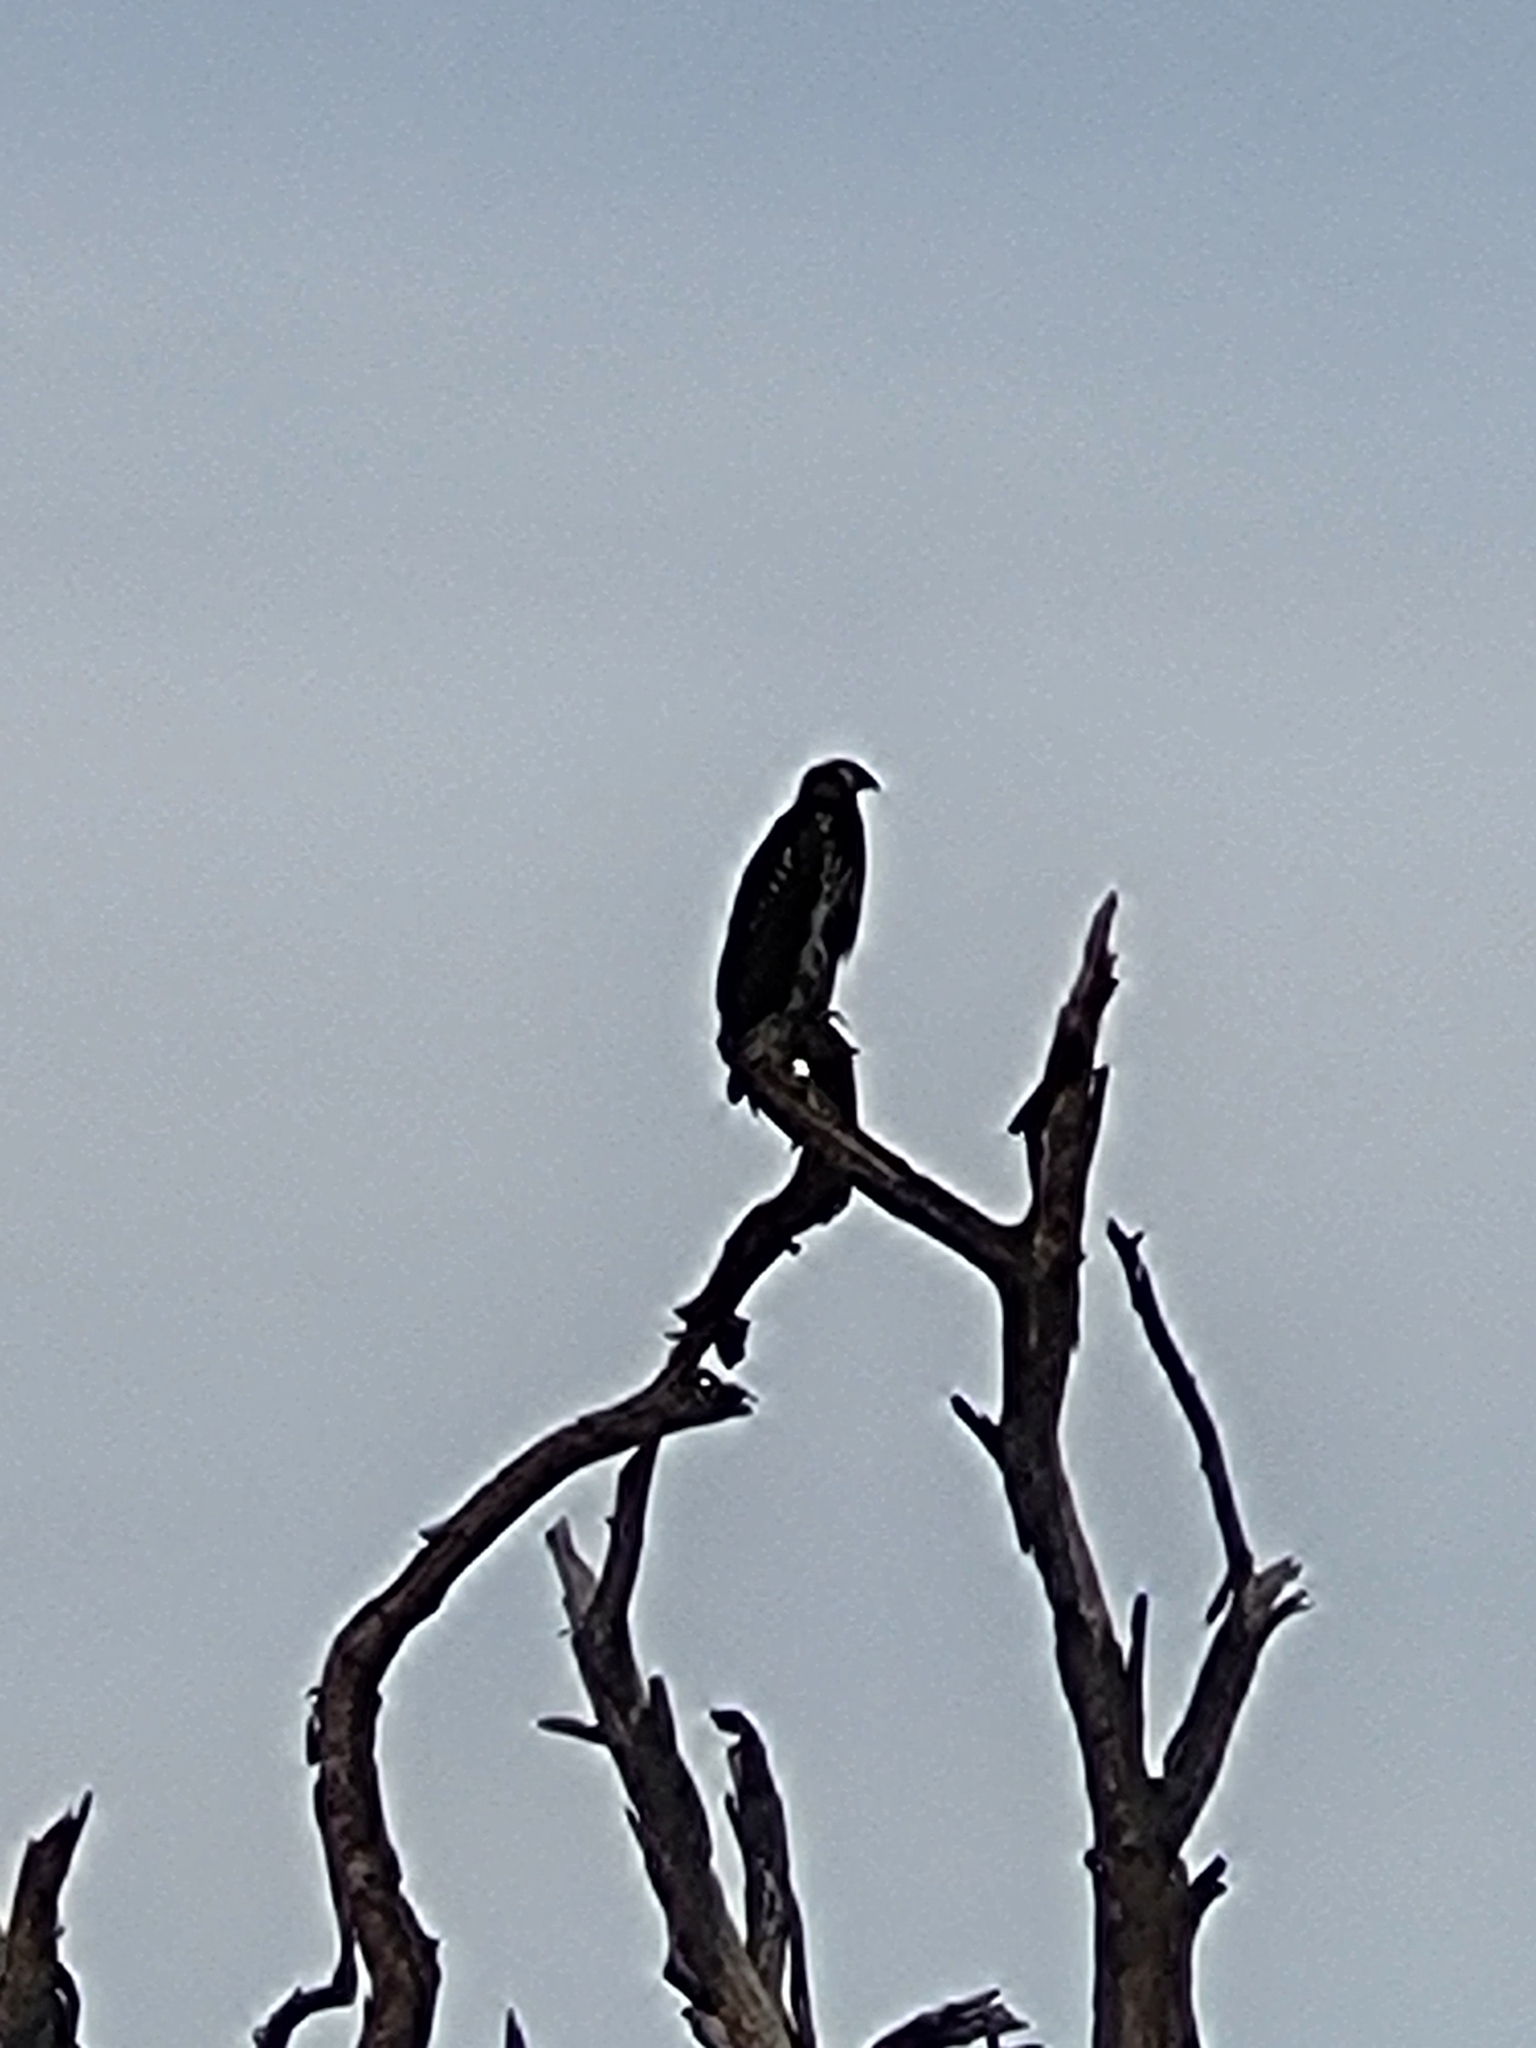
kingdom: Animalia
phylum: Chordata
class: Aves
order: Accipitriformes
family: Accipitridae
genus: Haliaeetus
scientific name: Haliaeetus vocifer
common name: African fish eagle
